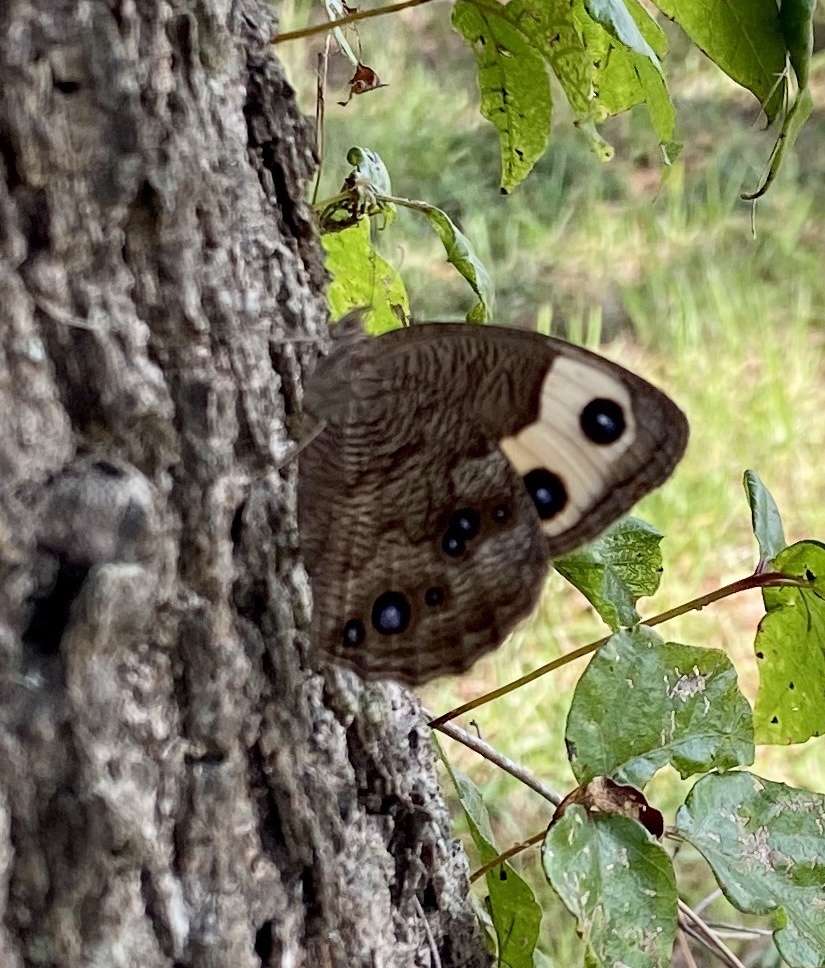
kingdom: Animalia
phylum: Arthropoda
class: Insecta
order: Lepidoptera
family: Nymphalidae
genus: Cercyonis
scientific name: Cercyonis pegala
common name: Common wood-nymph
